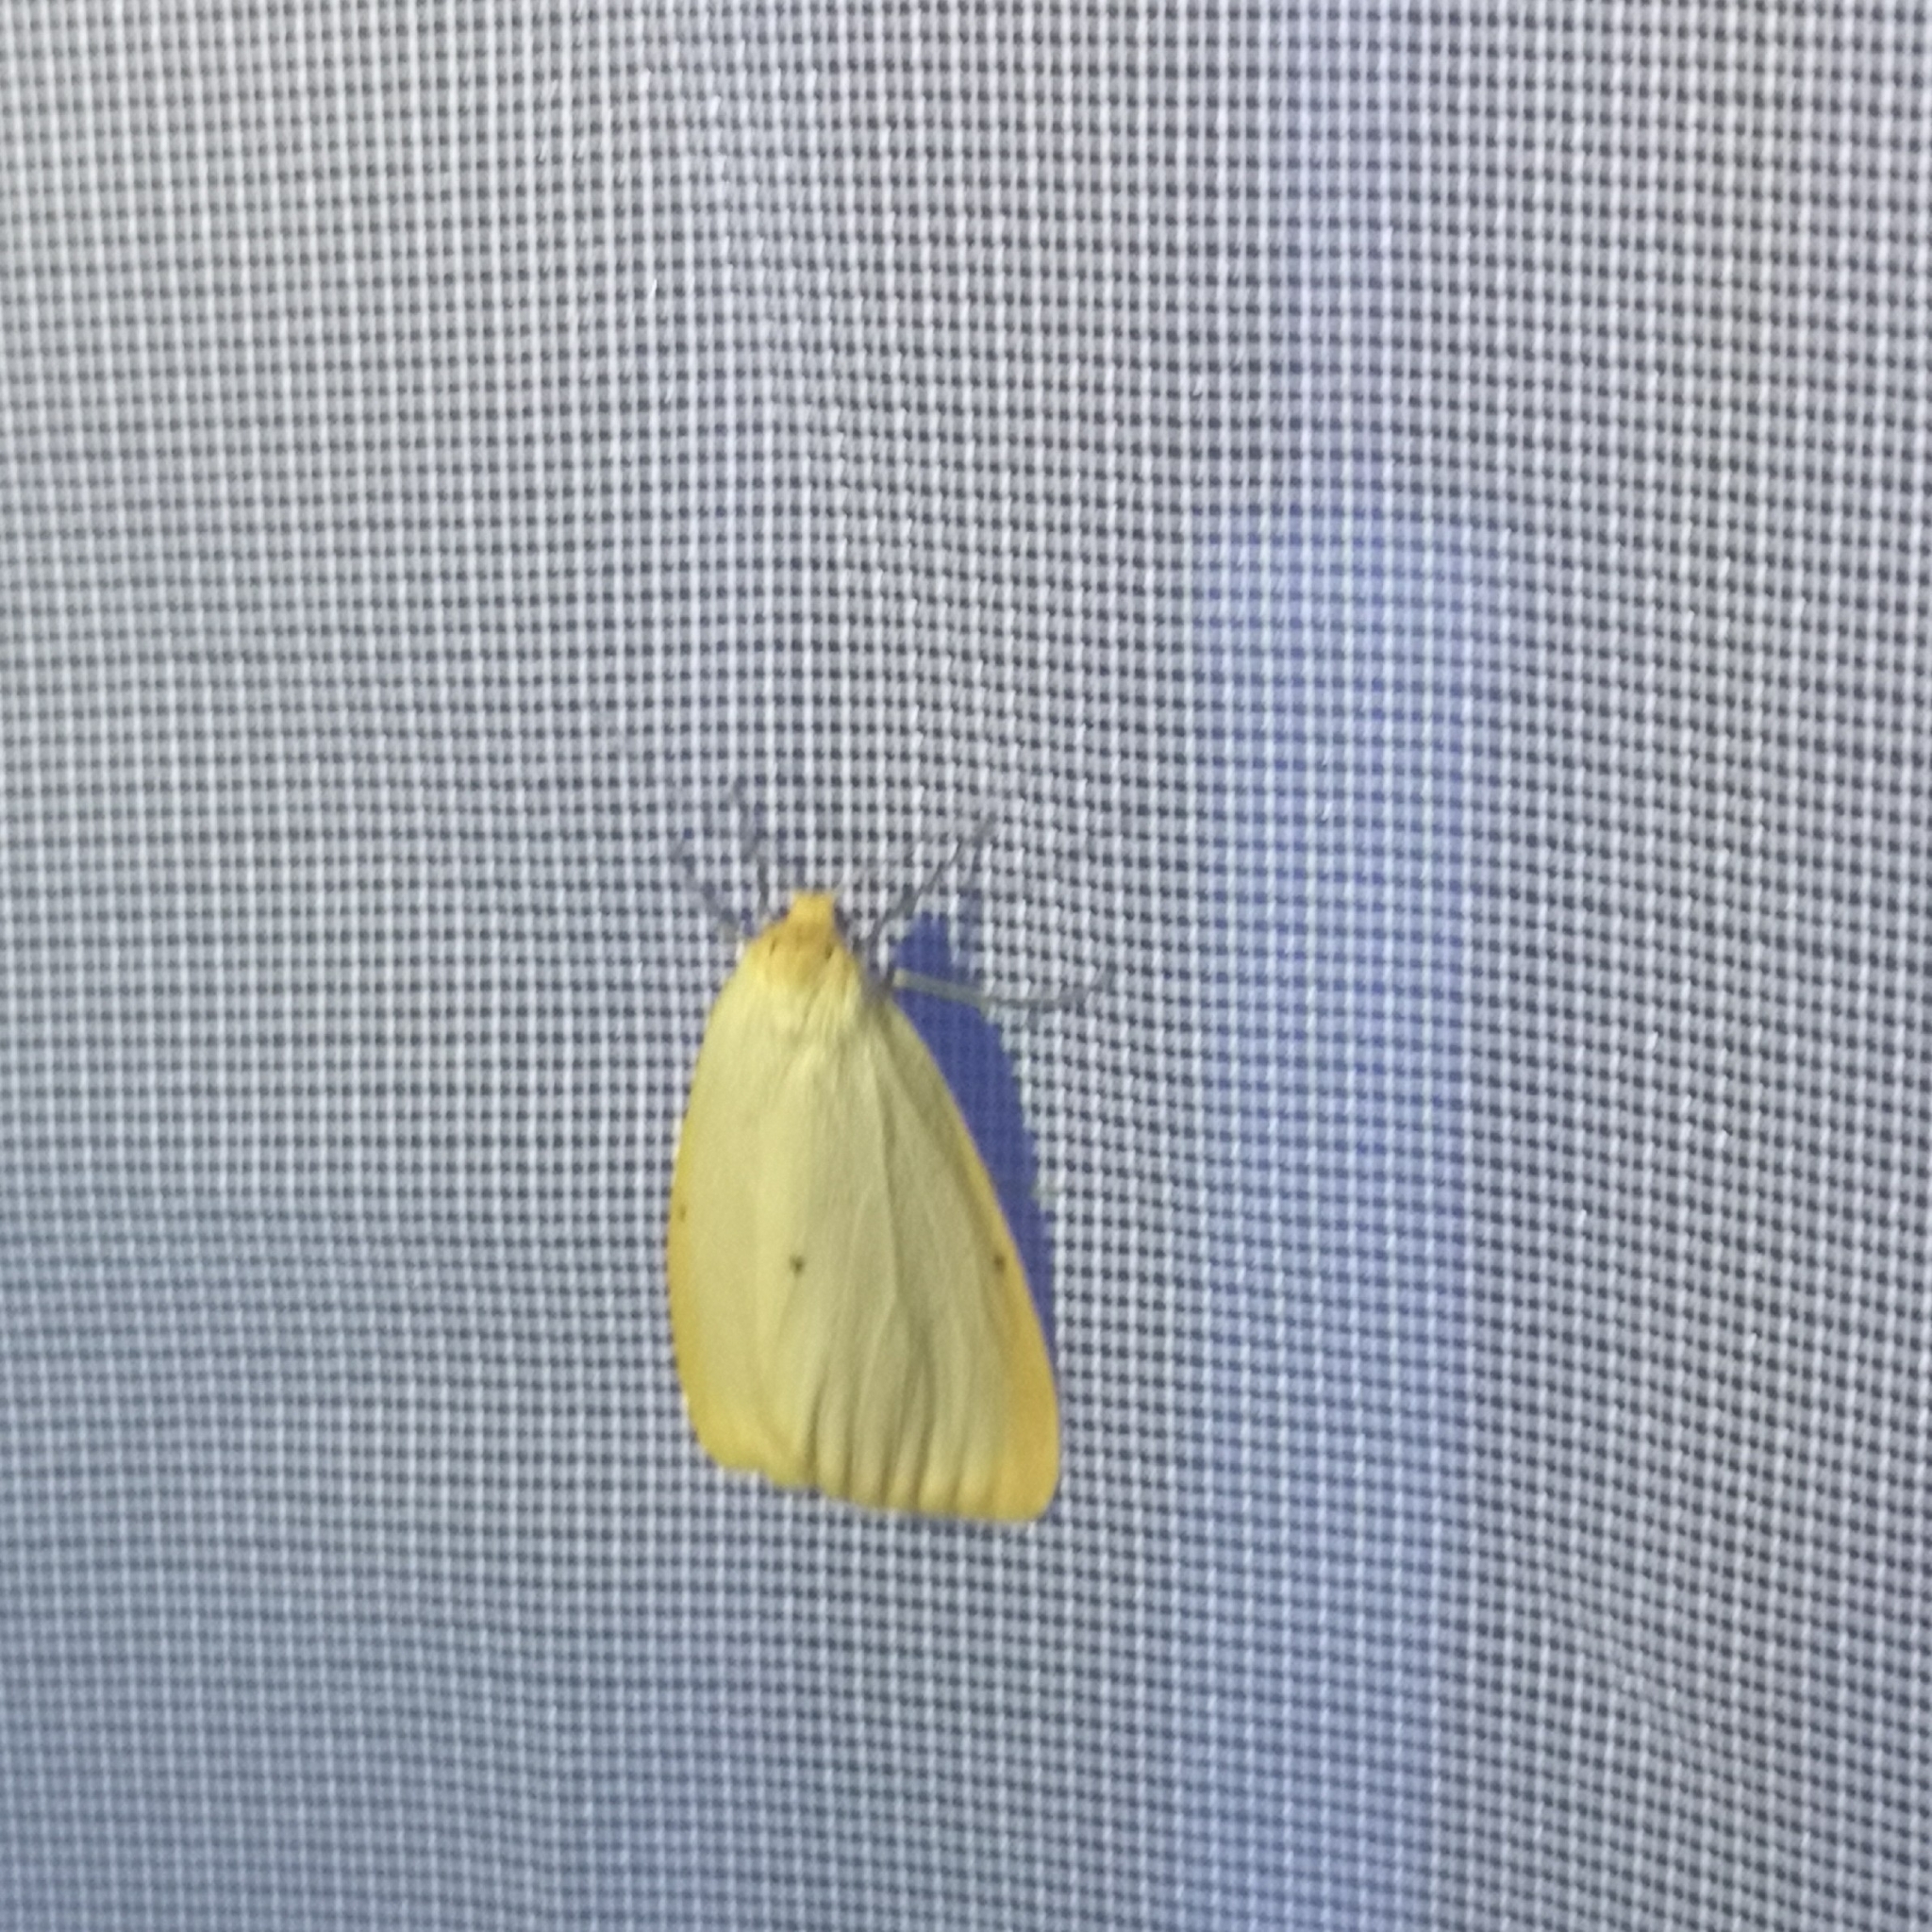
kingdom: Animalia
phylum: Arthropoda
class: Insecta
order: Lepidoptera
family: Erebidae
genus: Cybosia
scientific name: Cybosia mesomella
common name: Four-dotted footman
